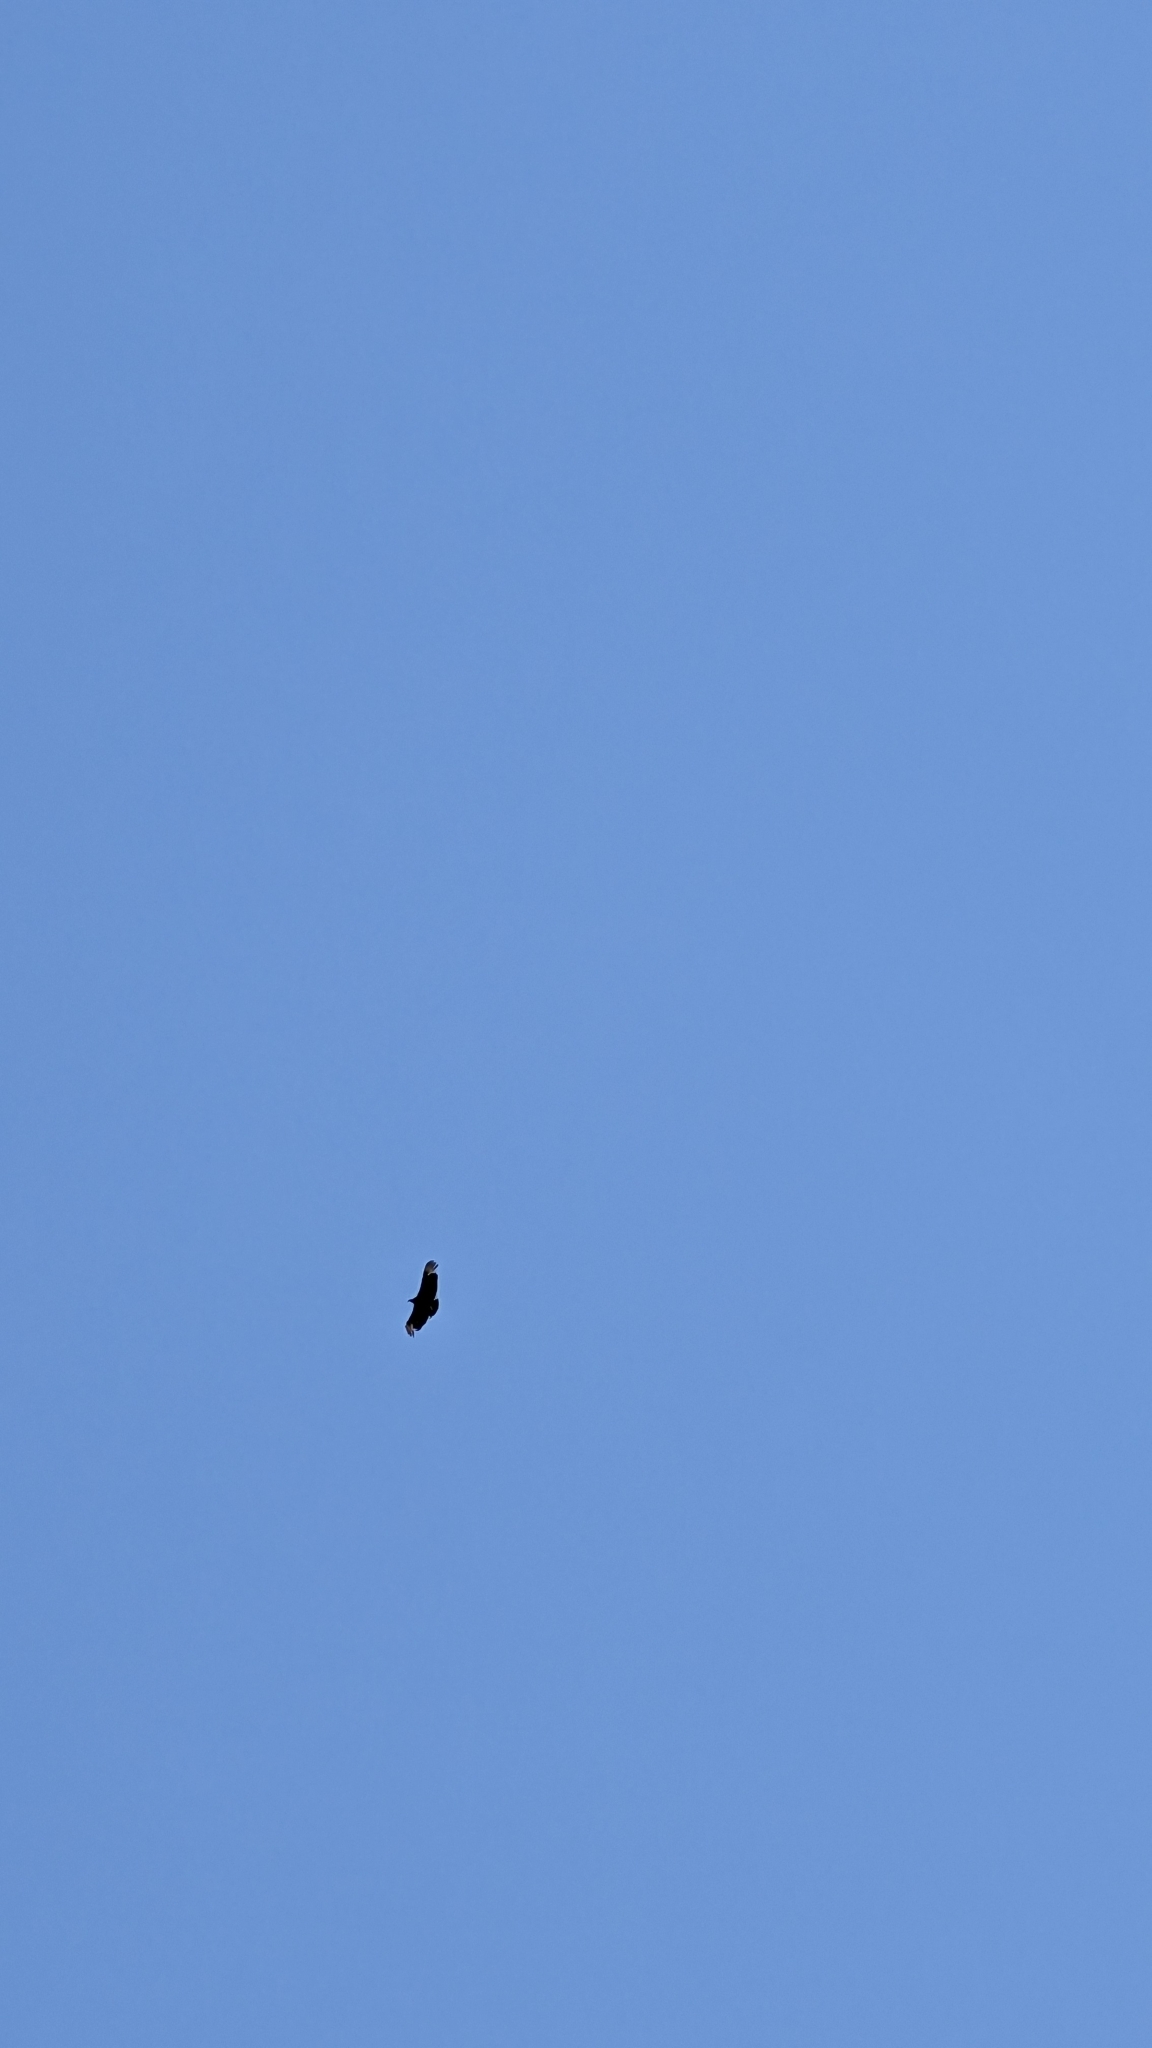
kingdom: Animalia
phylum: Chordata
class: Aves
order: Accipitriformes
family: Cathartidae
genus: Coragyps
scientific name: Coragyps atratus
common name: Black vulture
